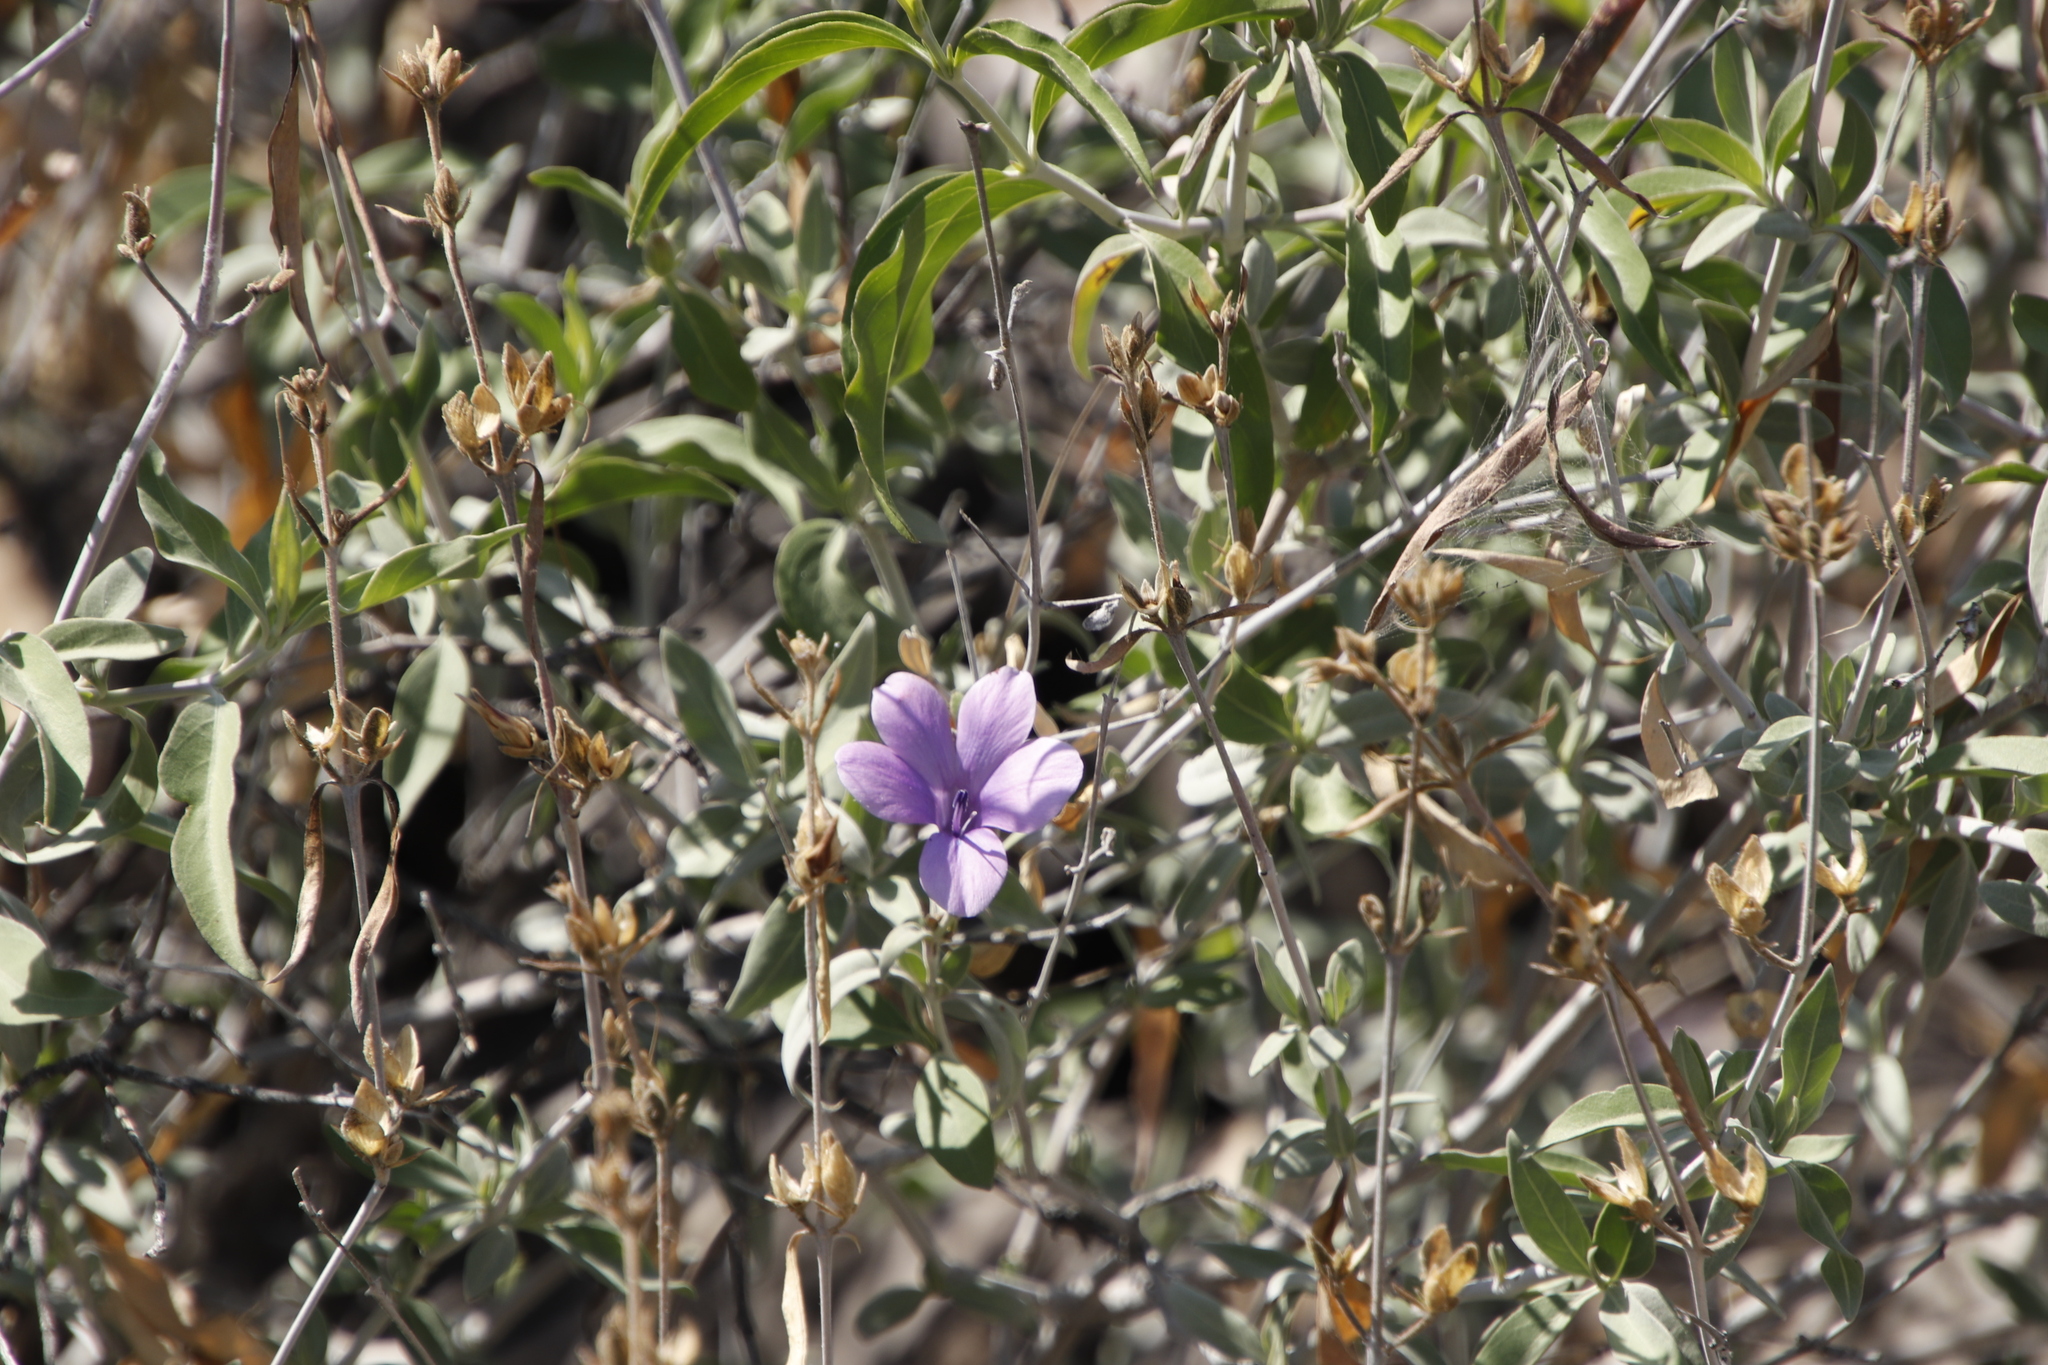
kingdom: Plantae
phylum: Tracheophyta
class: Magnoliopsida
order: Lamiales
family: Acanthaceae
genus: Barleria
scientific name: Barleria lancifolia
